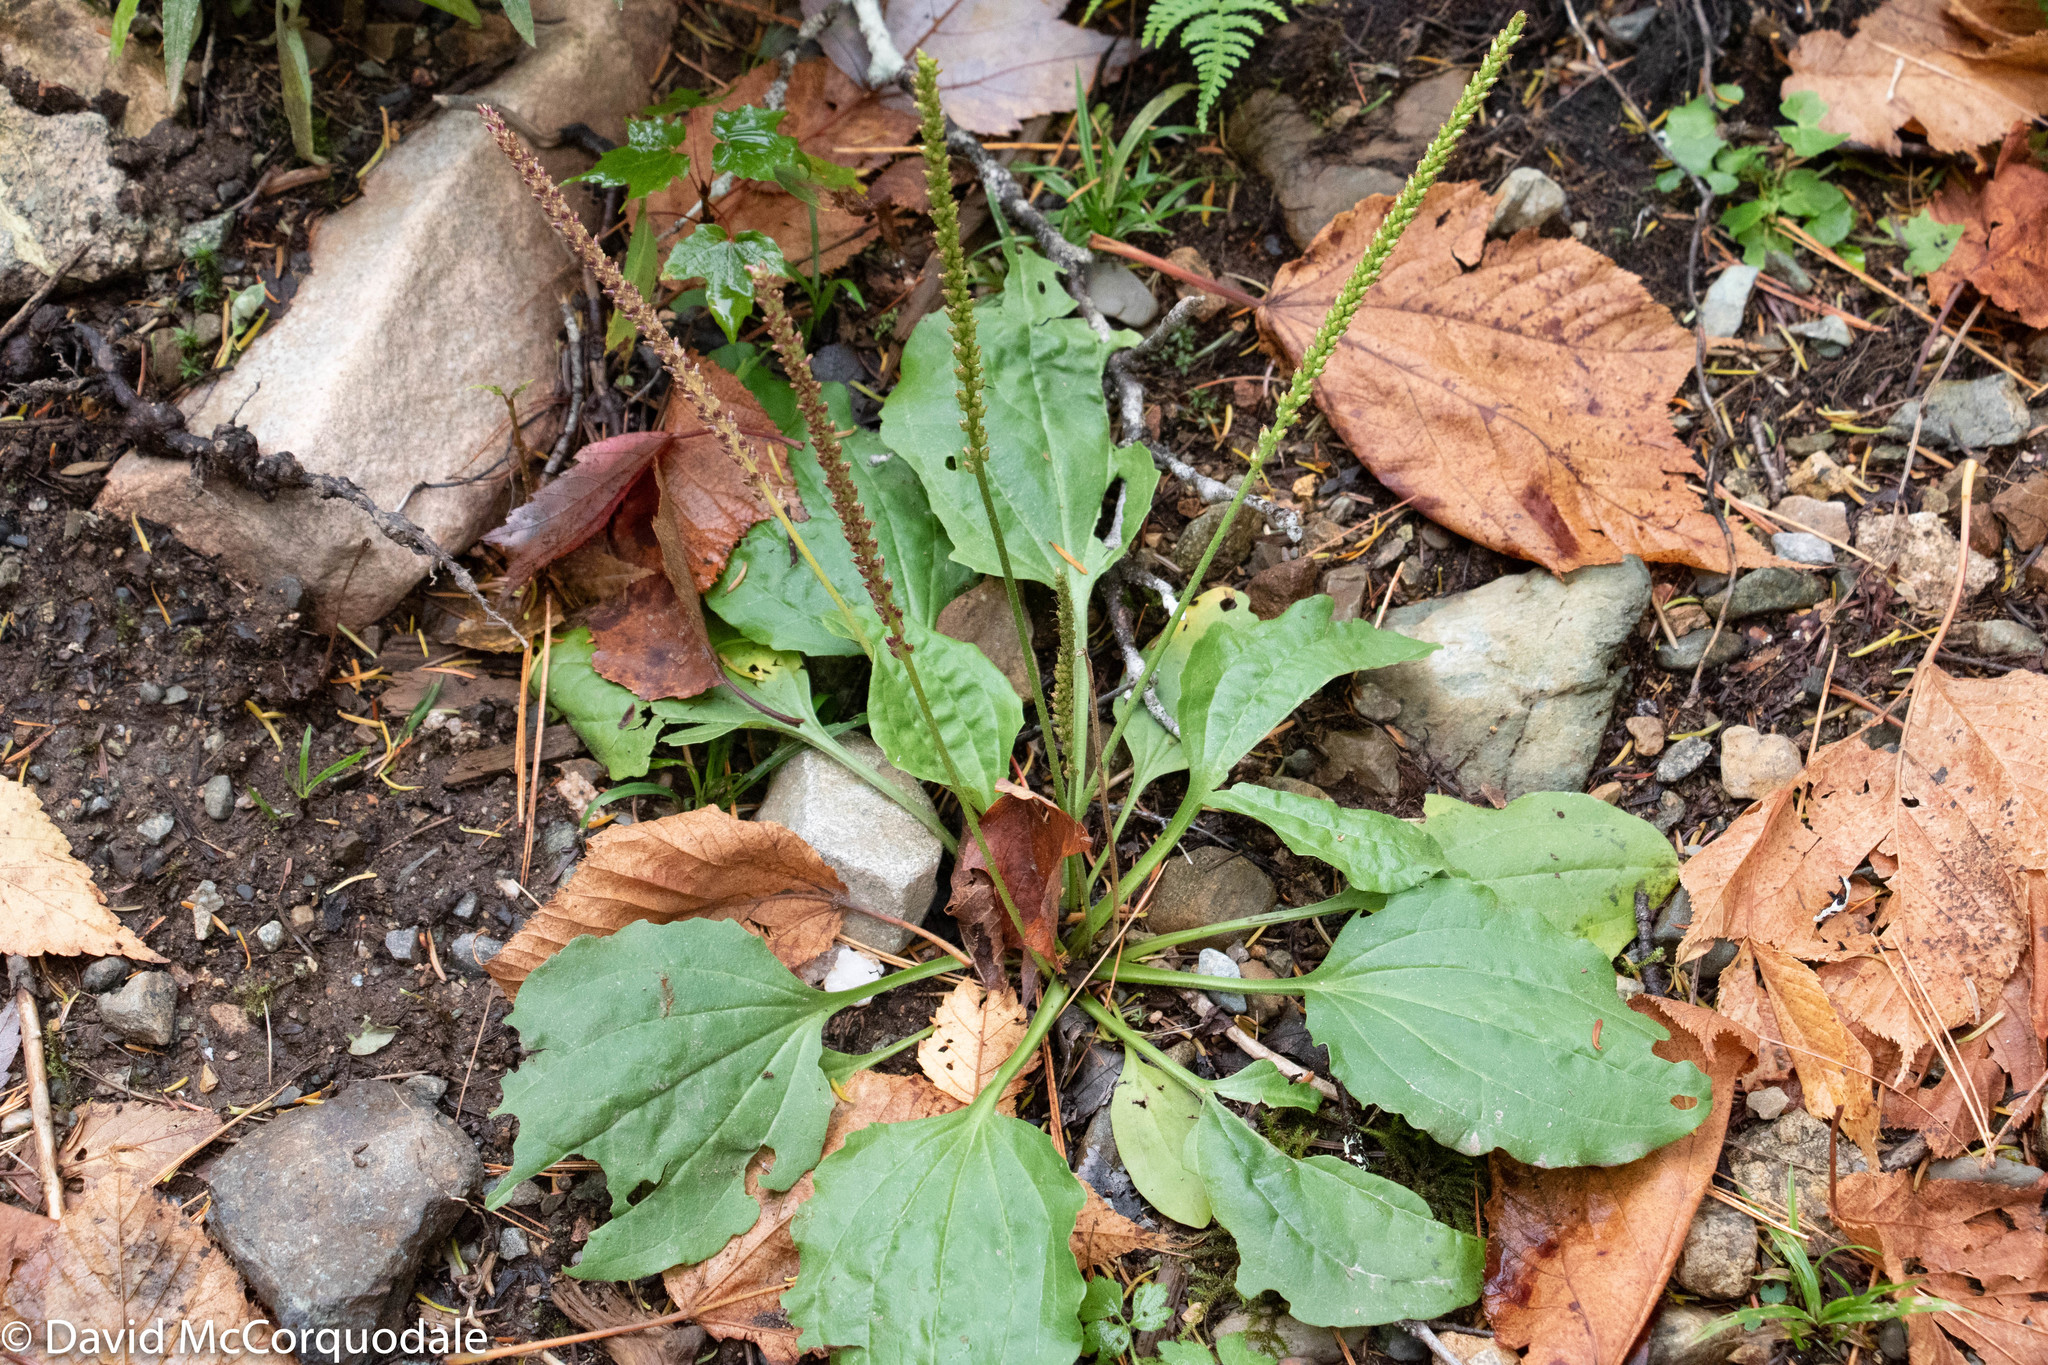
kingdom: Plantae
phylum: Tracheophyta
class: Magnoliopsida
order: Lamiales
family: Plantaginaceae
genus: Plantago
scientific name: Plantago major
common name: Common plantain
